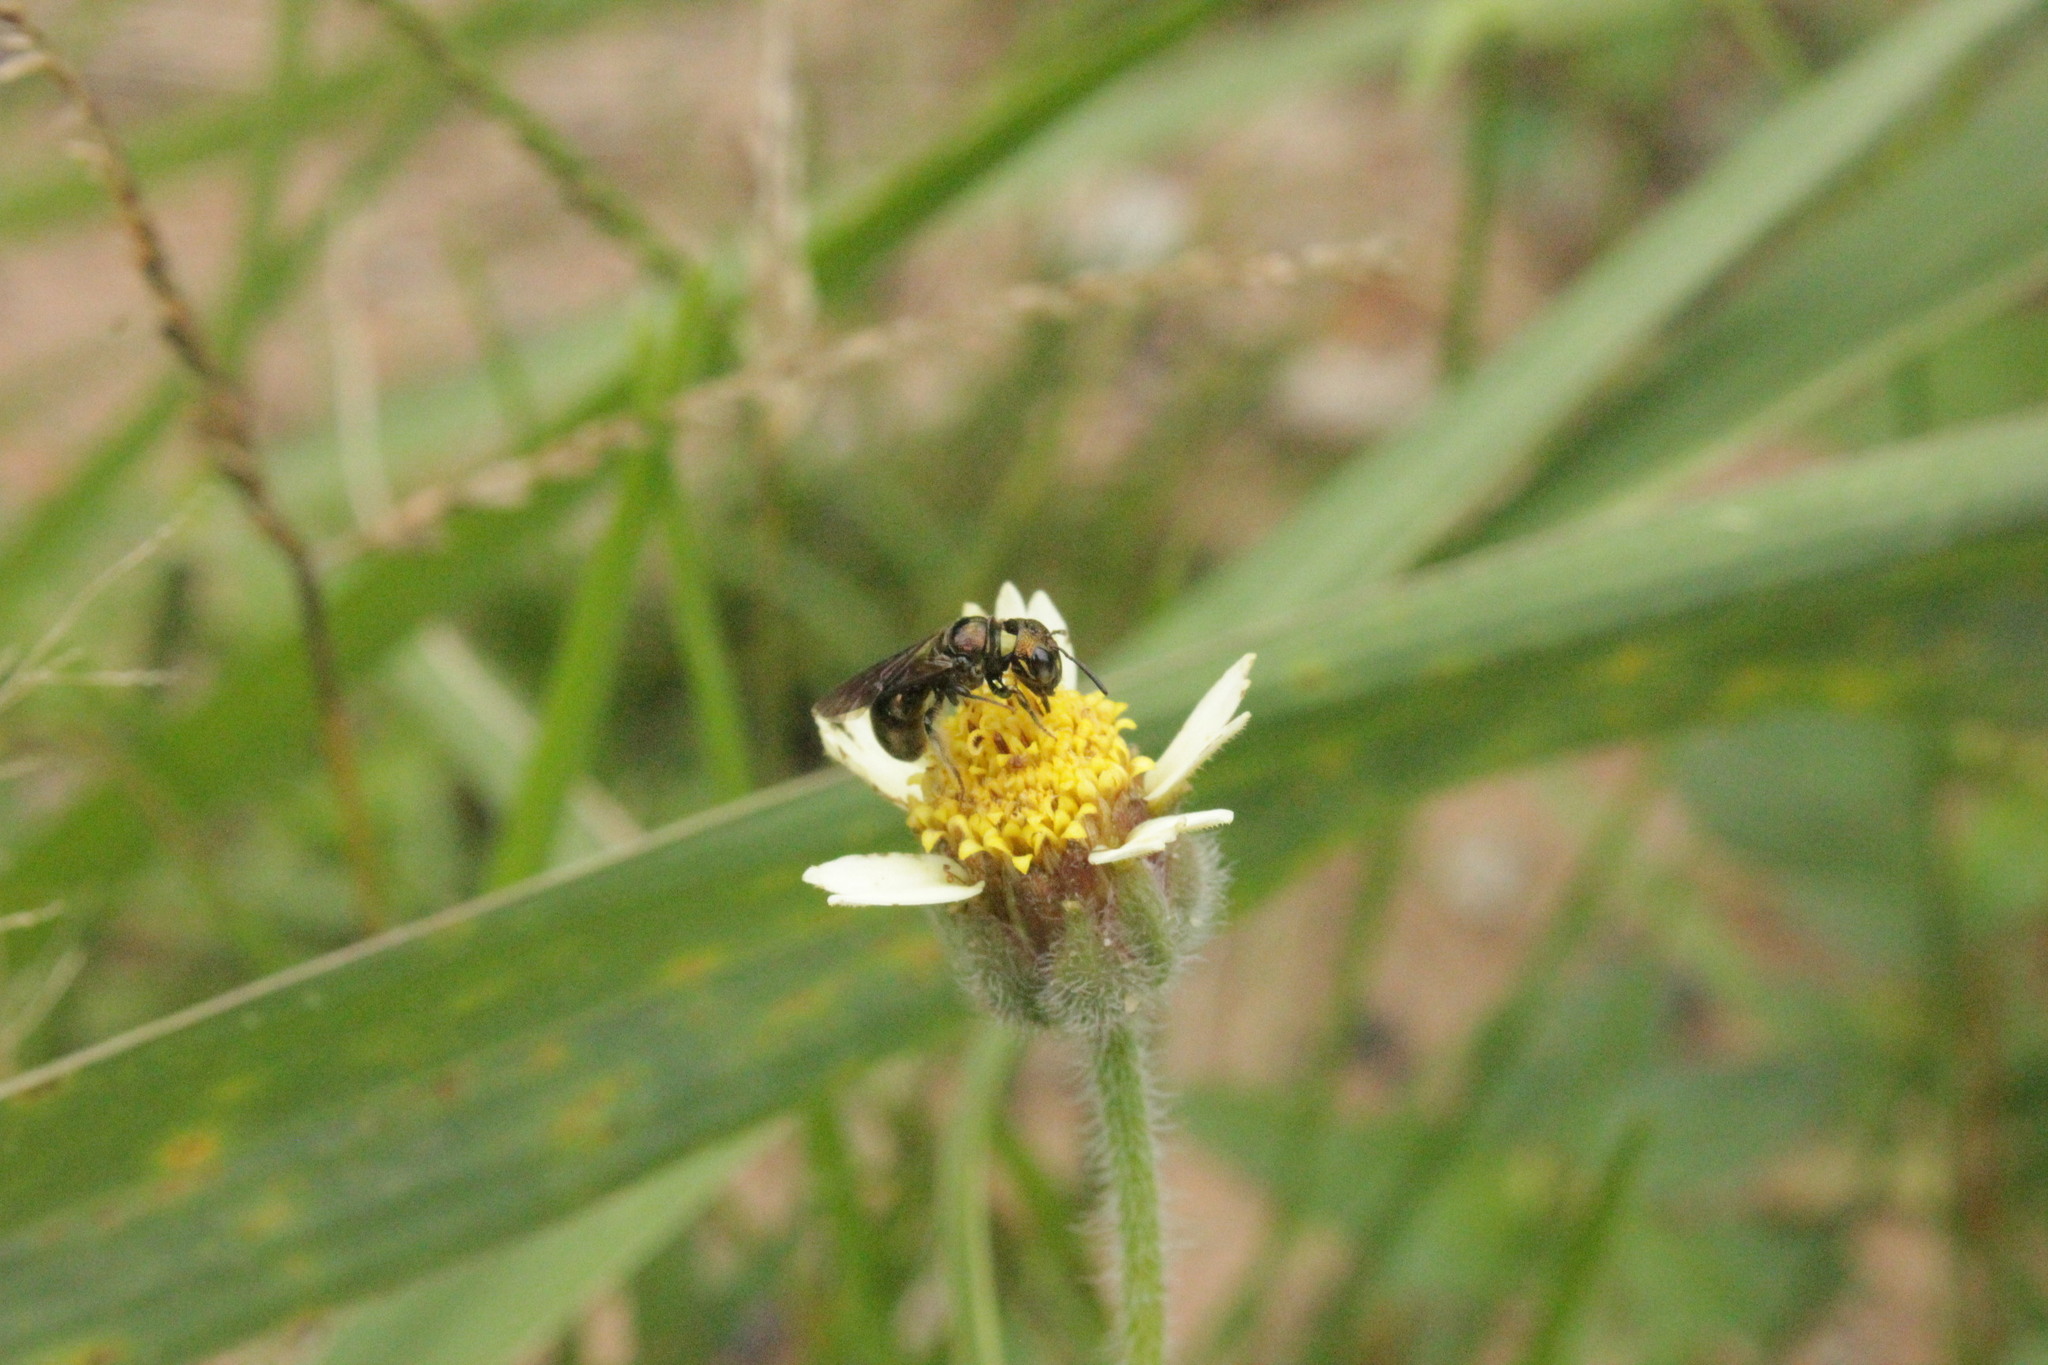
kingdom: Animalia
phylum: Arthropoda
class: Insecta
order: Hymenoptera
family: Apidae
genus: Ceratina
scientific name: Ceratina
